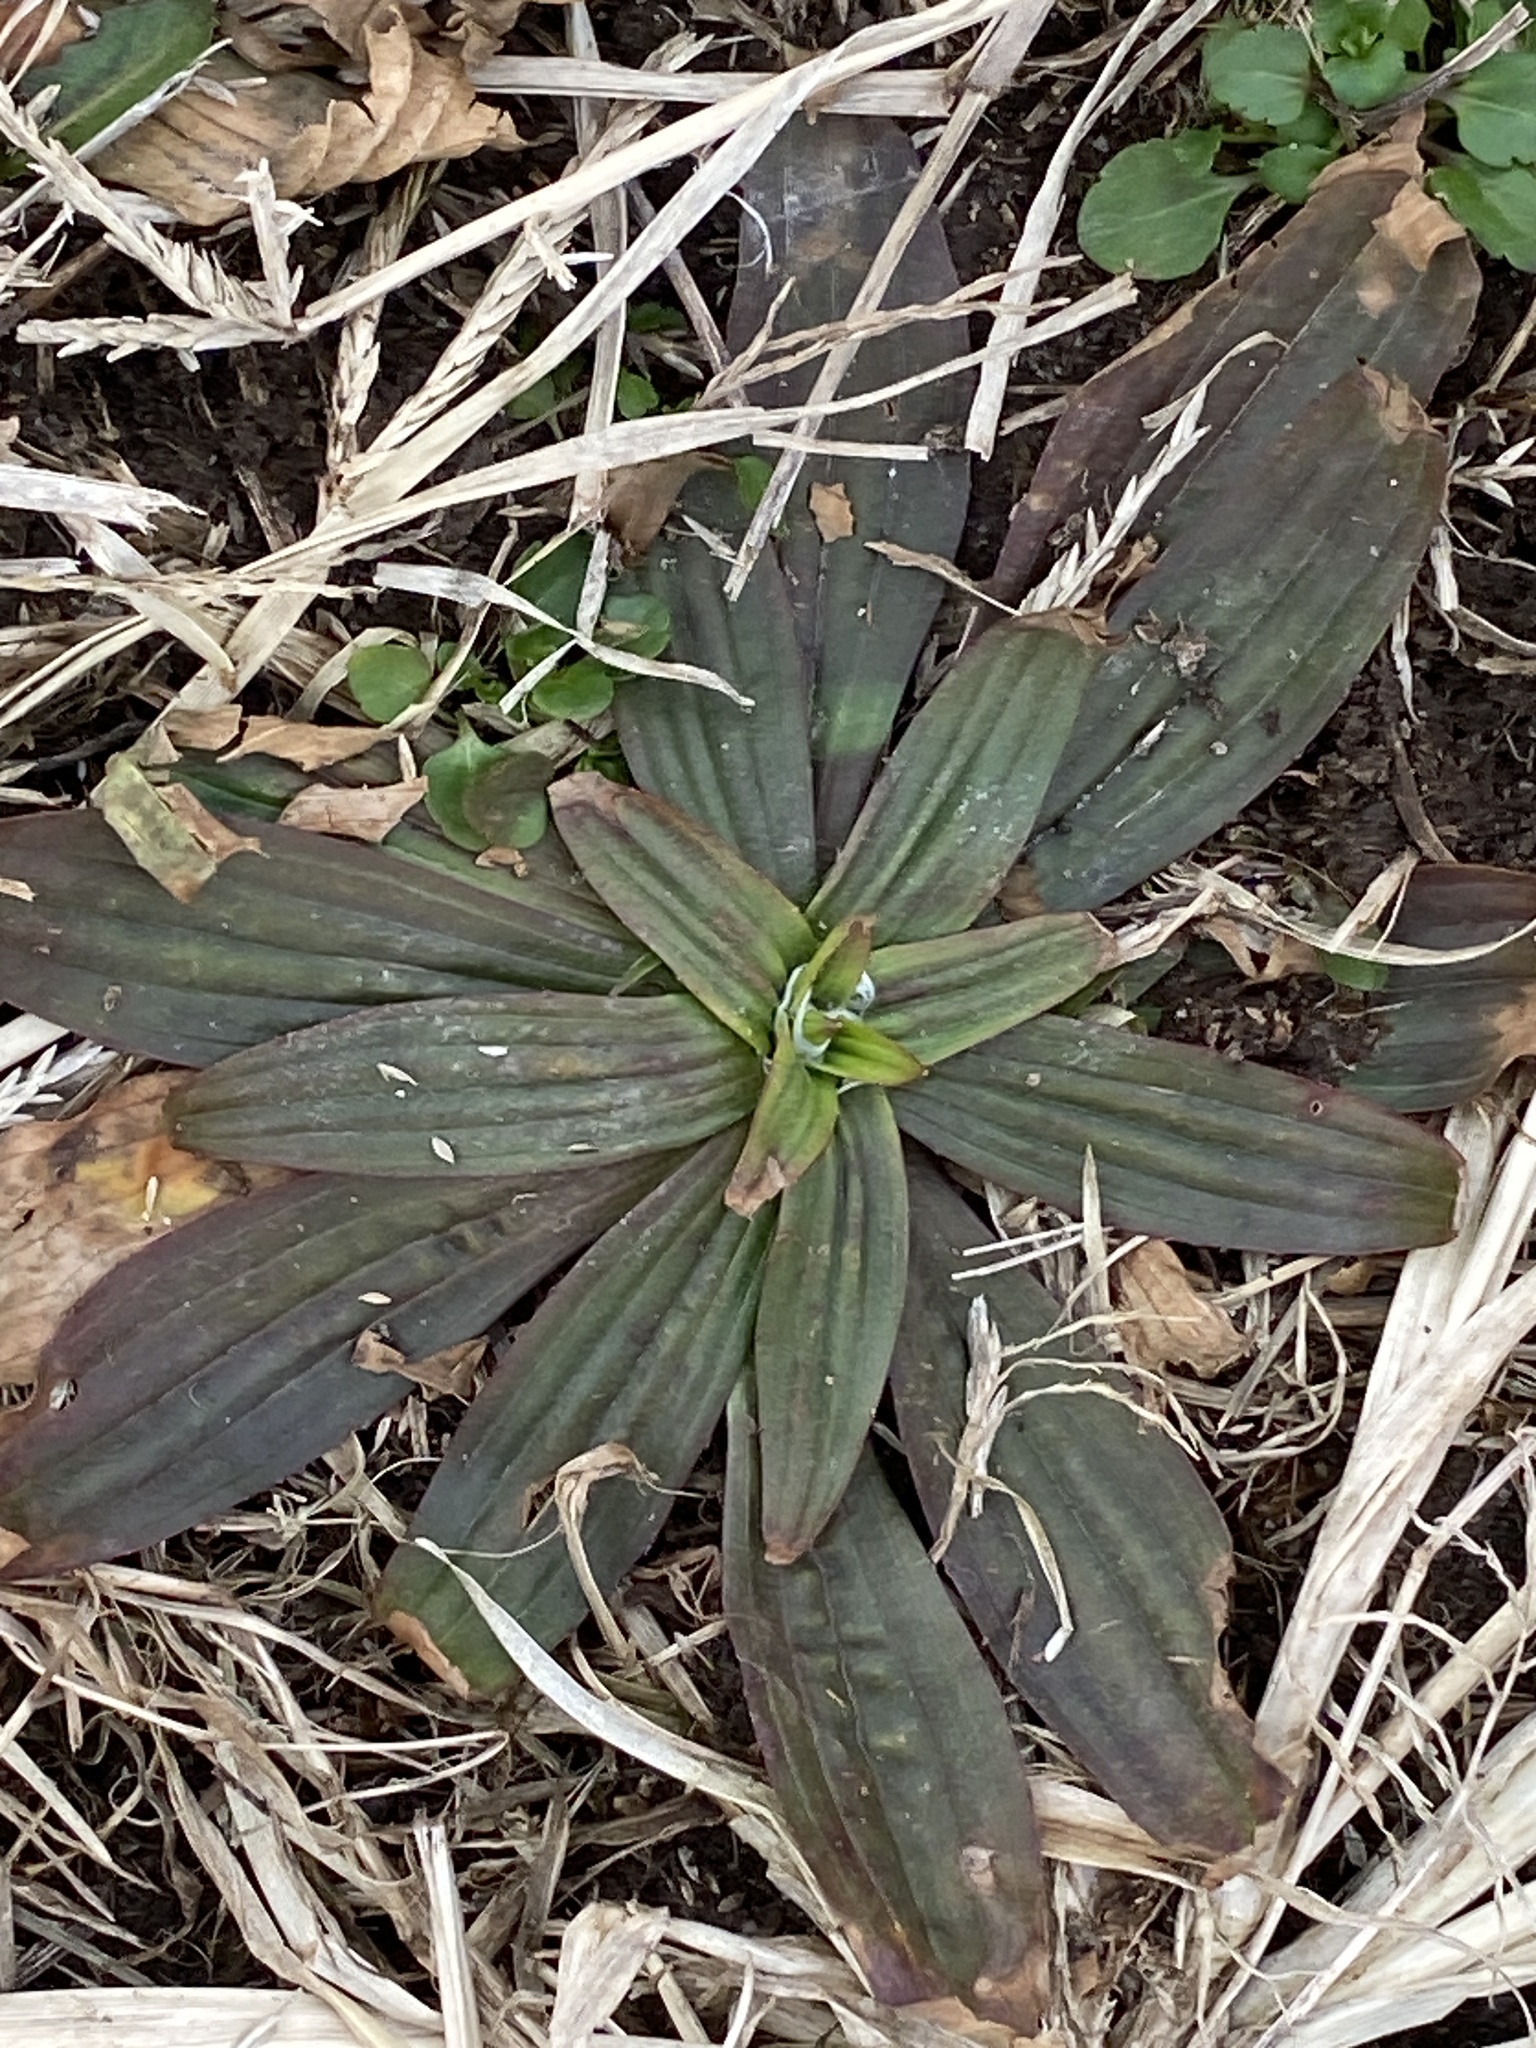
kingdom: Plantae
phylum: Tracheophyta
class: Magnoliopsida
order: Lamiales
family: Plantaginaceae
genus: Plantago
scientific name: Plantago lanceolata
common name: Ribwort plantain
